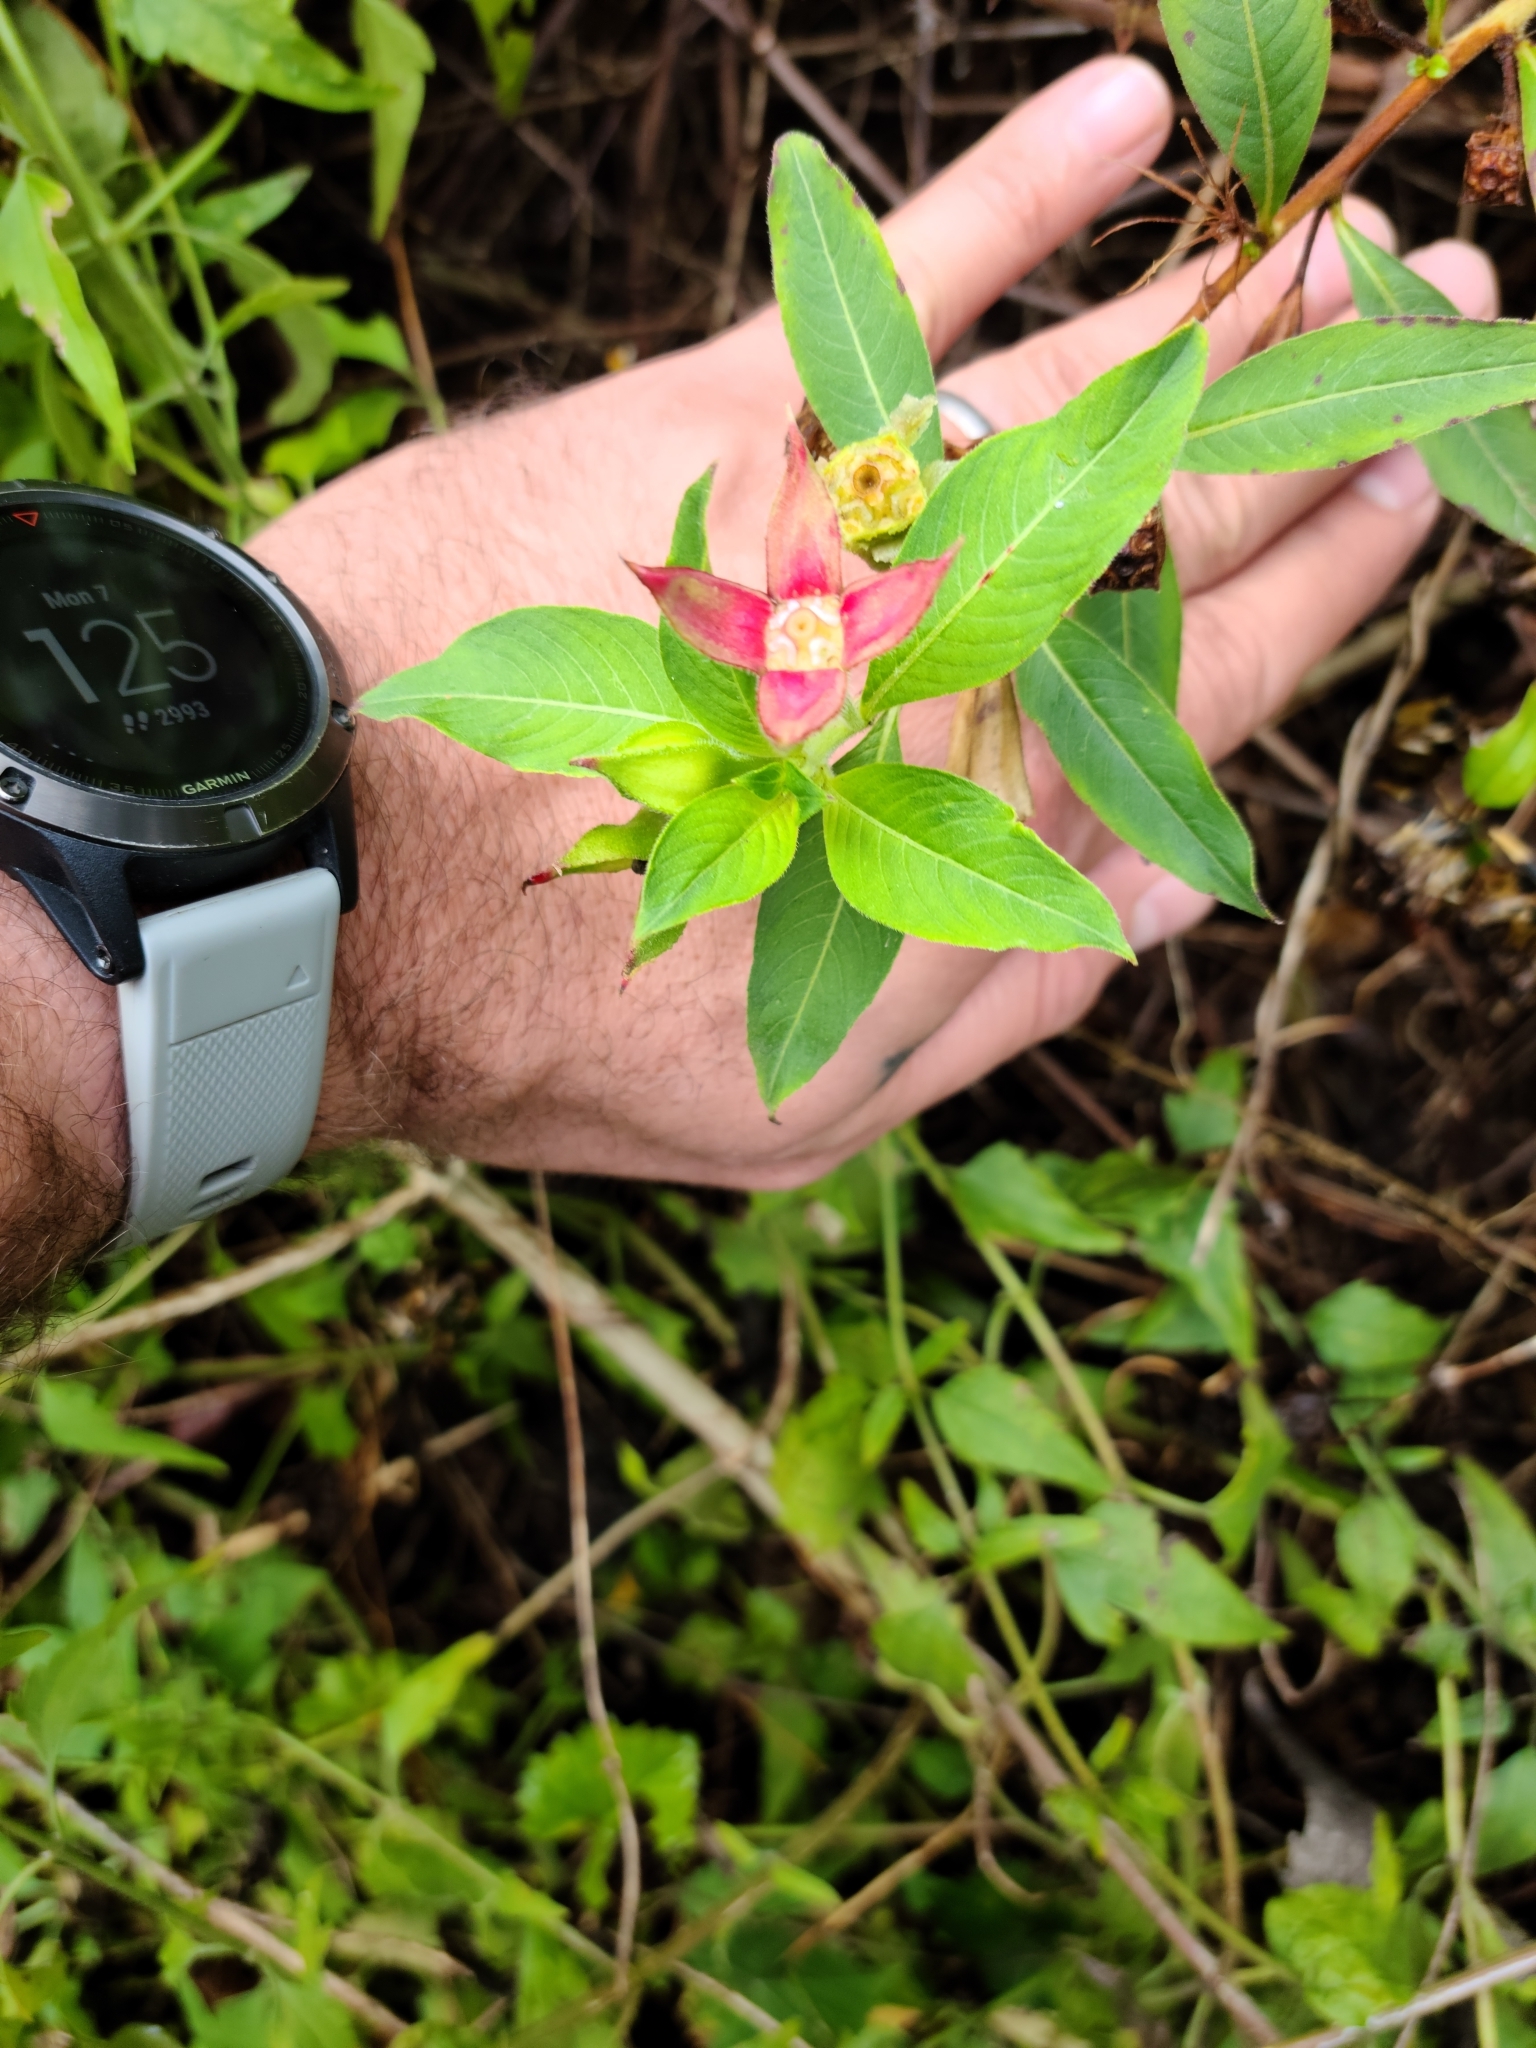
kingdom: Plantae
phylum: Tracheophyta
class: Magnoliopsida
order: Myrtales
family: Onagraceae
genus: Ludwigia
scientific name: Ludwigia peruviana
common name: Peruvian primrose-willow
